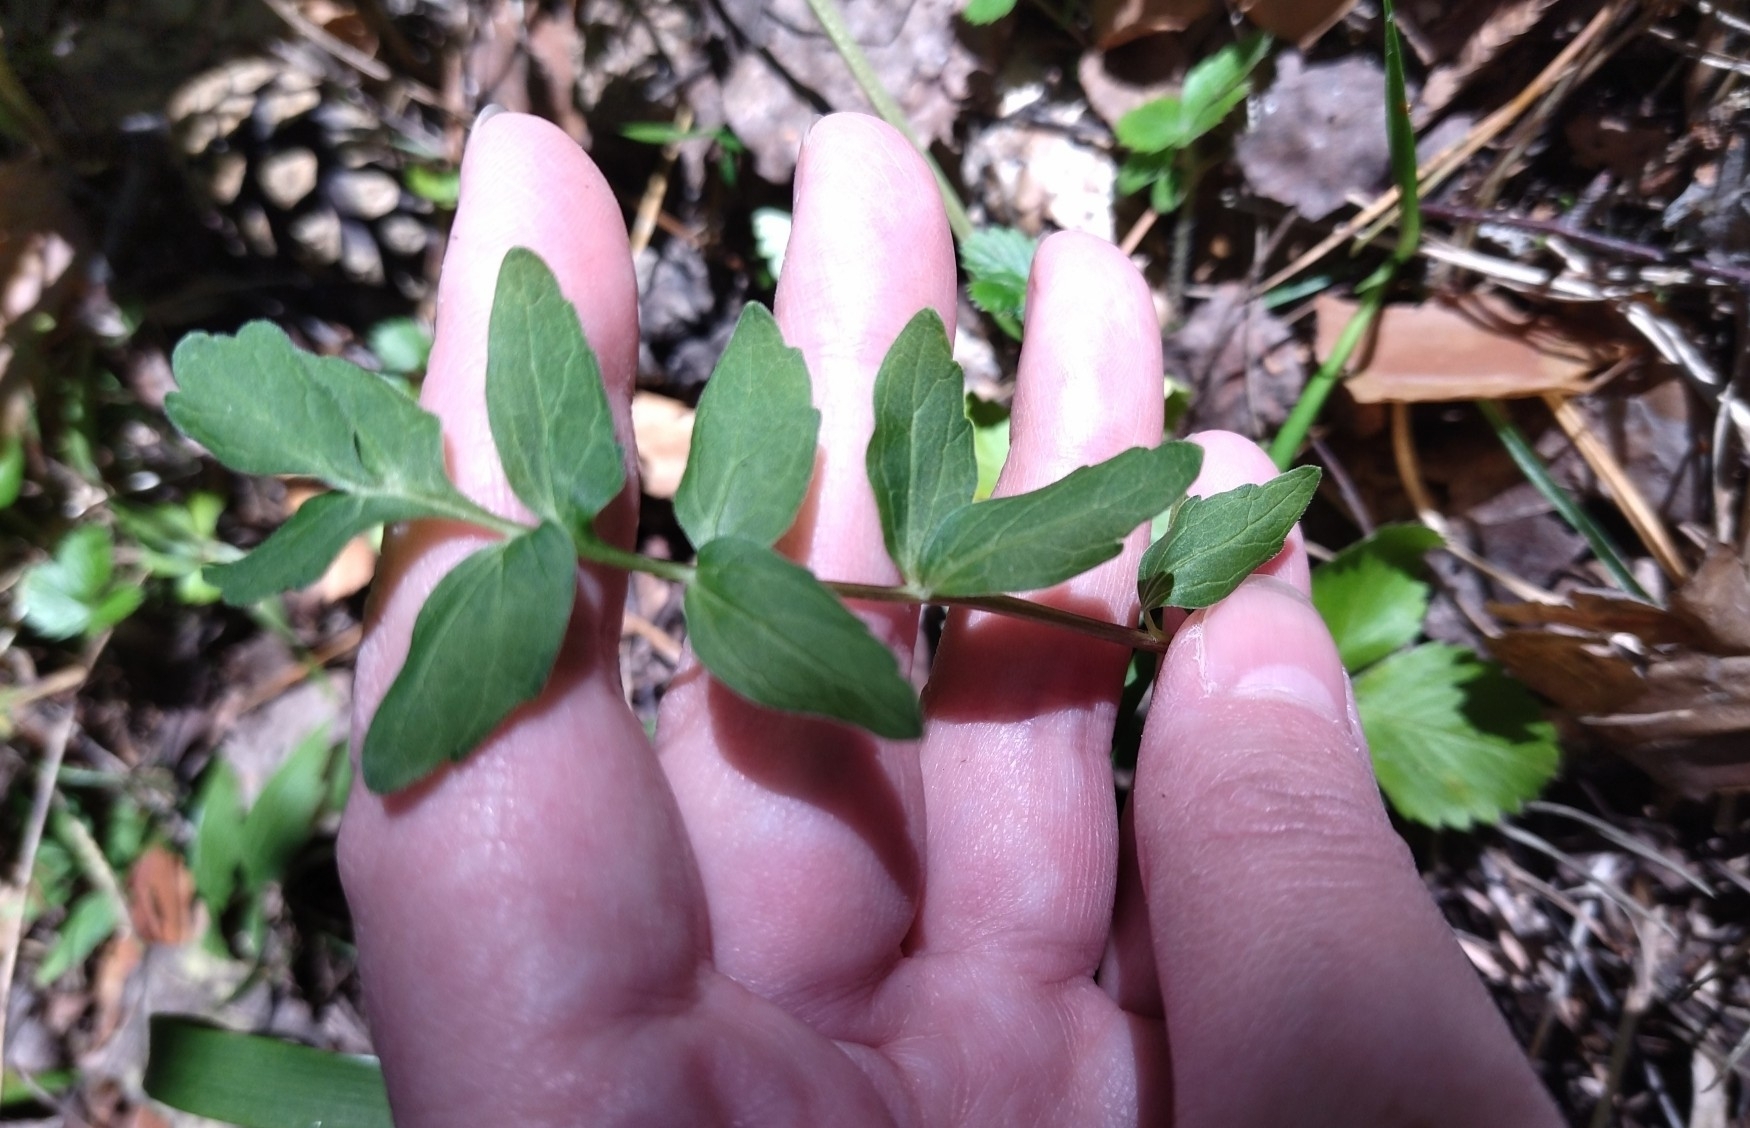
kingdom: Plantae
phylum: Tracheophyta
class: Magnoliopsida
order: Dipsacales
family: Caprifoliaceae
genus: Valeriana
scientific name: Valeriana officinalis
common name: Common valerian
